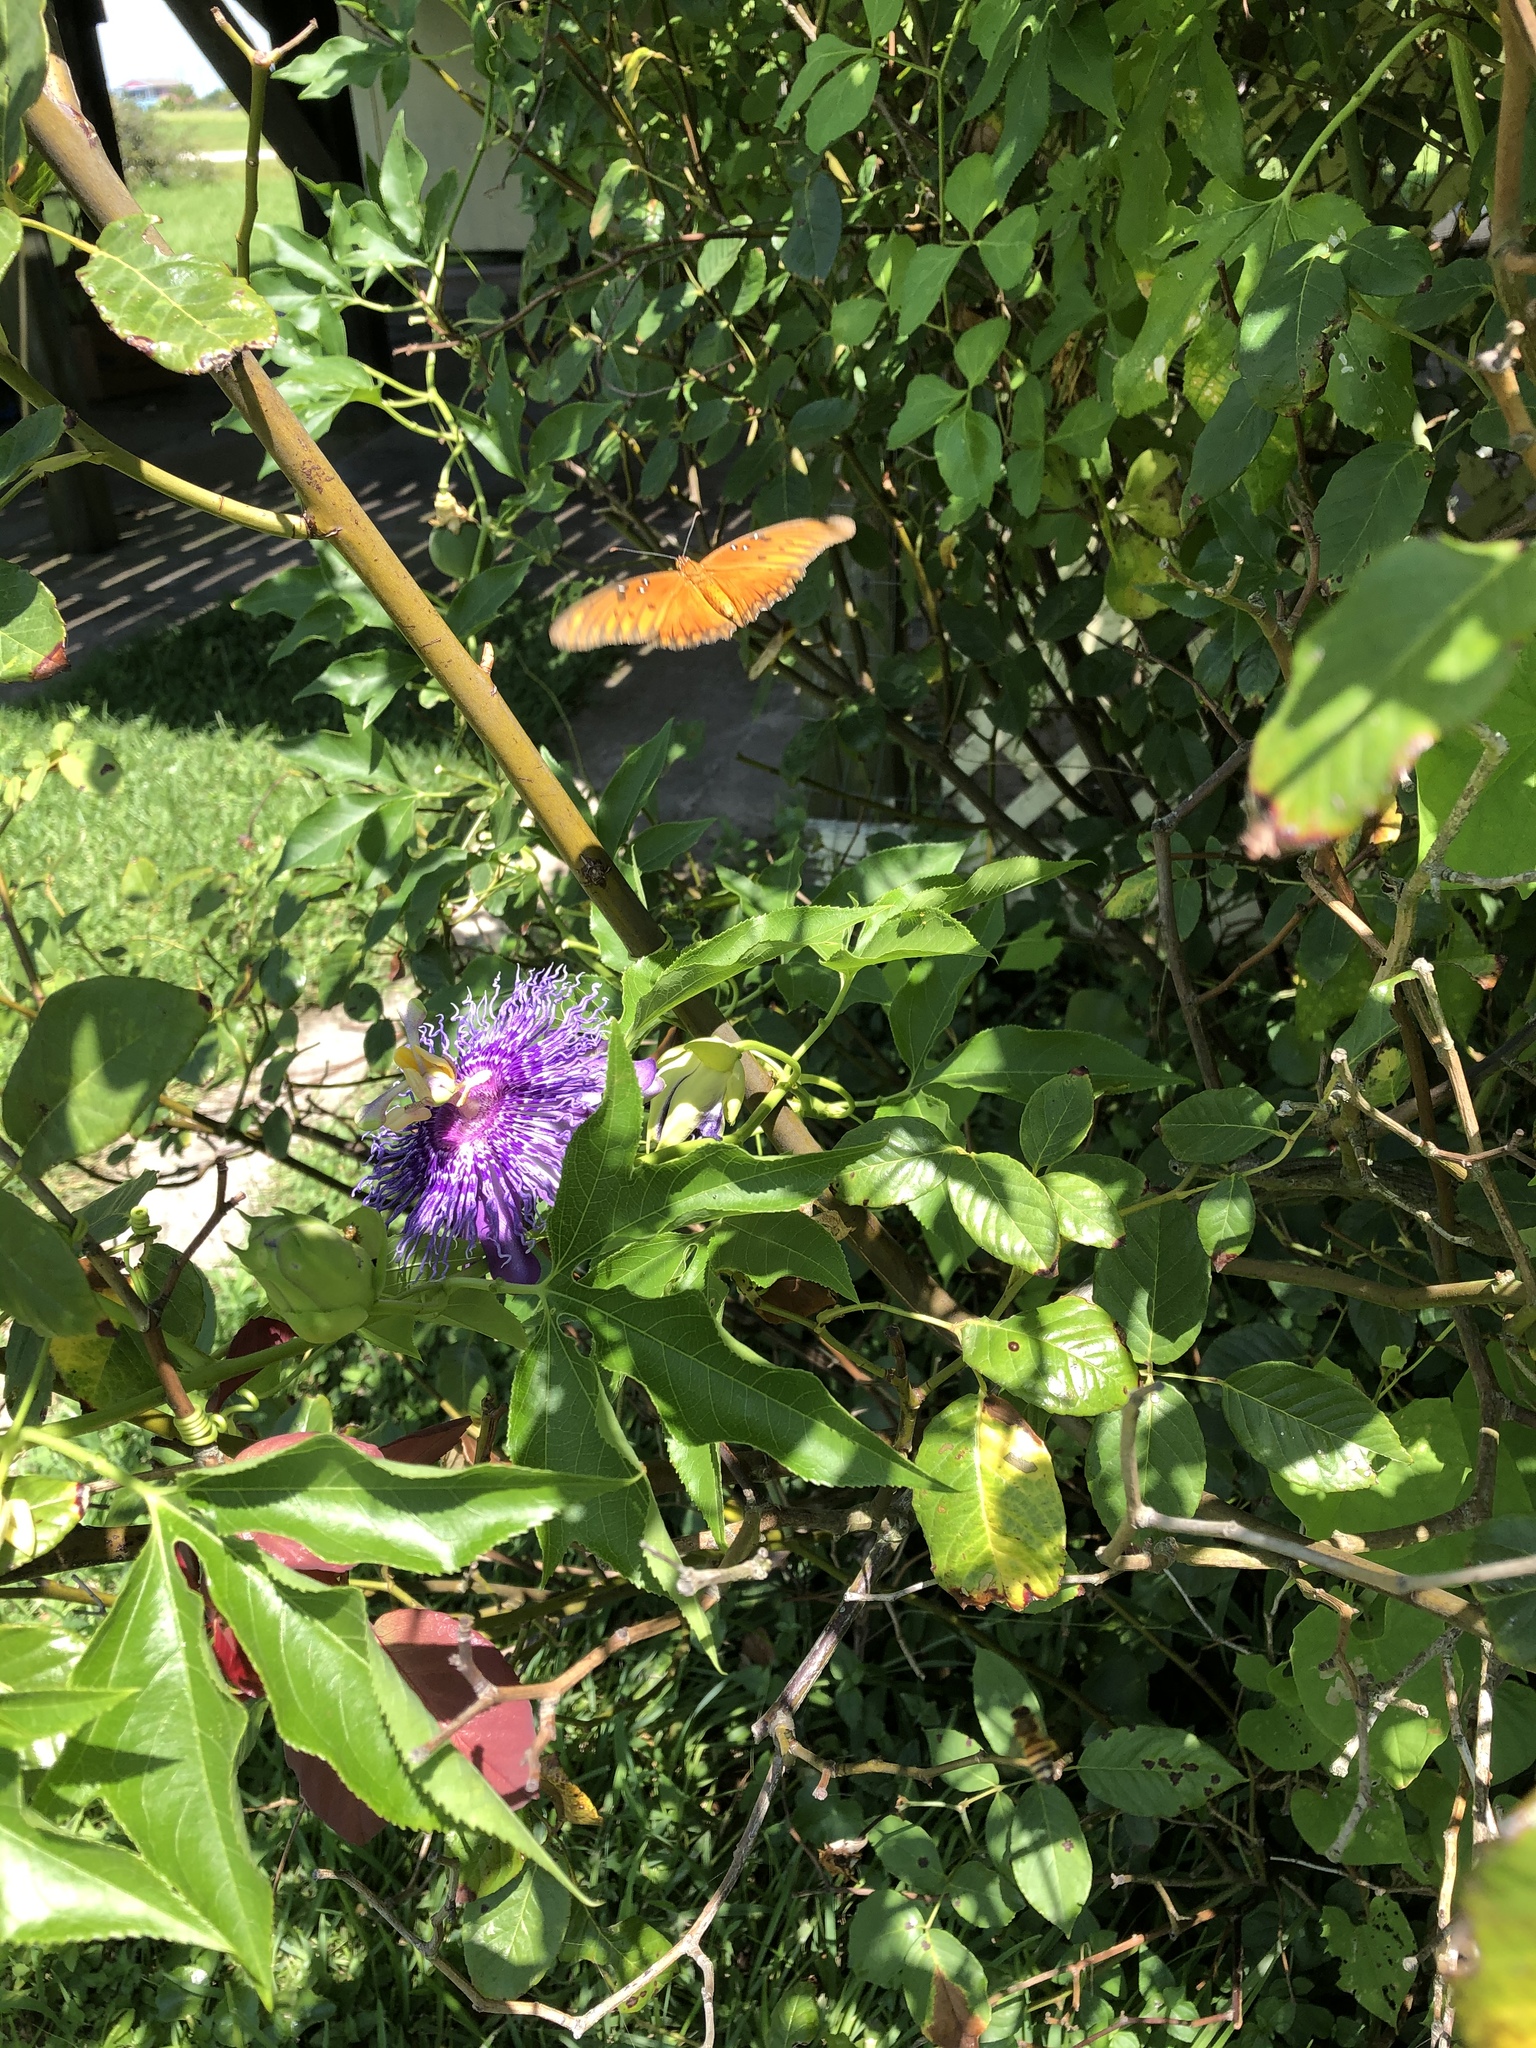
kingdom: Animalia
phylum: Arthropoda
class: Insecta
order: Lepidoptera
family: Nymphalidae
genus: Dione
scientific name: Dione vanillae
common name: Gulf fritillary
